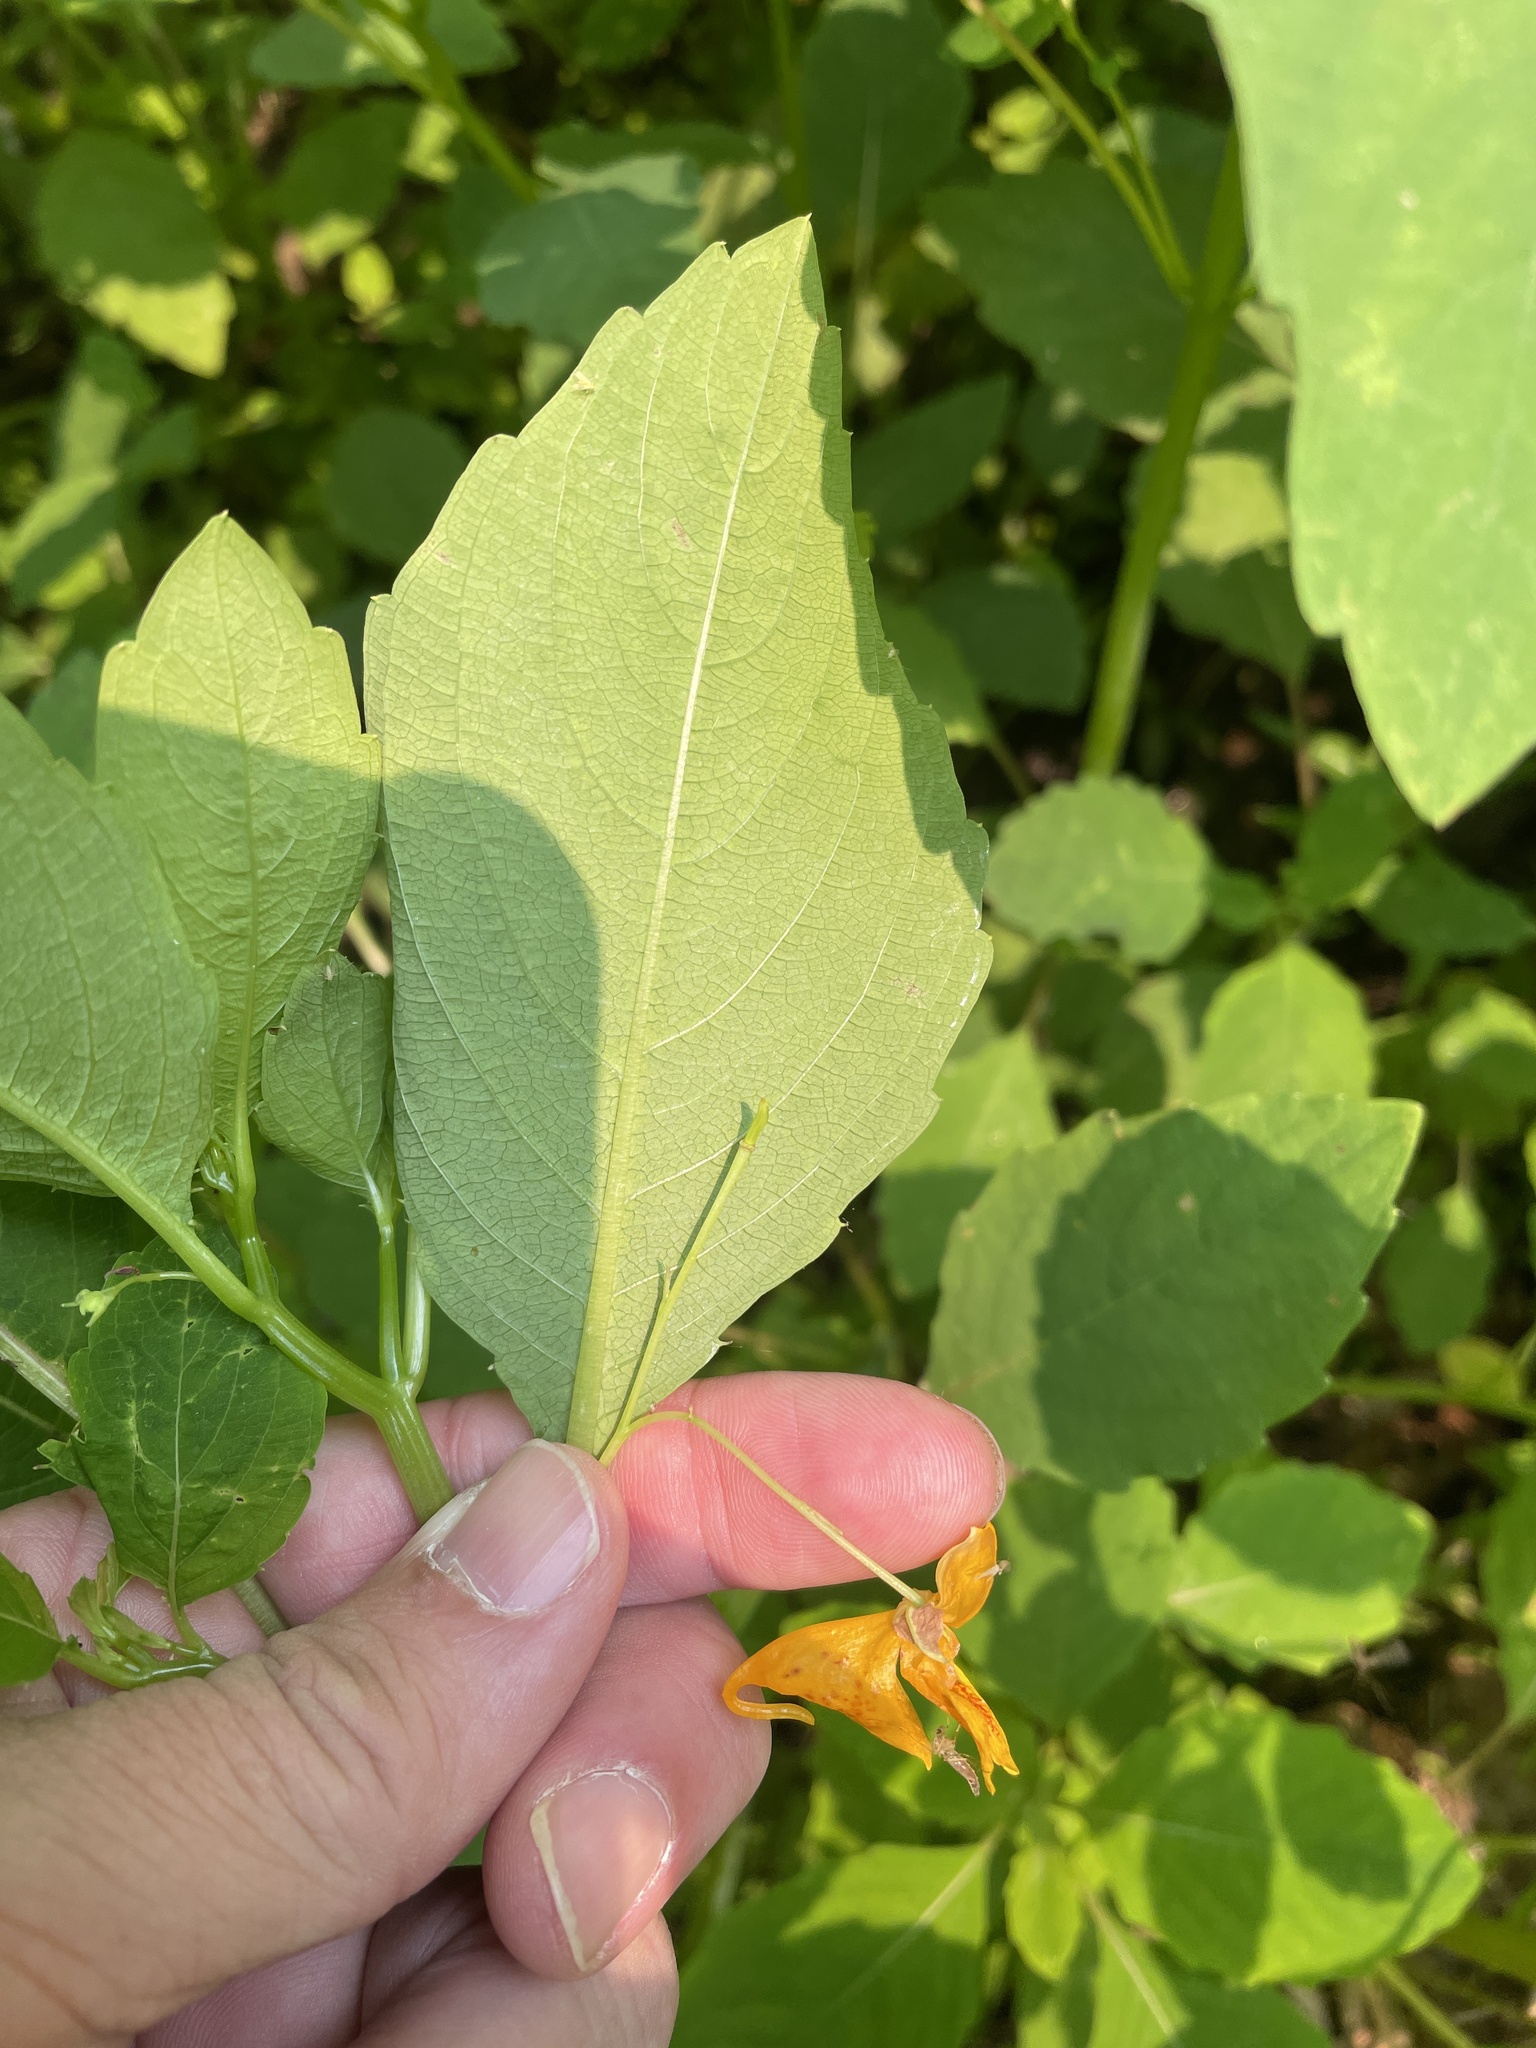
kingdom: Plantae
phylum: Tracheophyta
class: Magnoliopsida
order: Ericales
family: Balsaminaceae
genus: Impatiens
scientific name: Impatiens capensis
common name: Orange balsam
